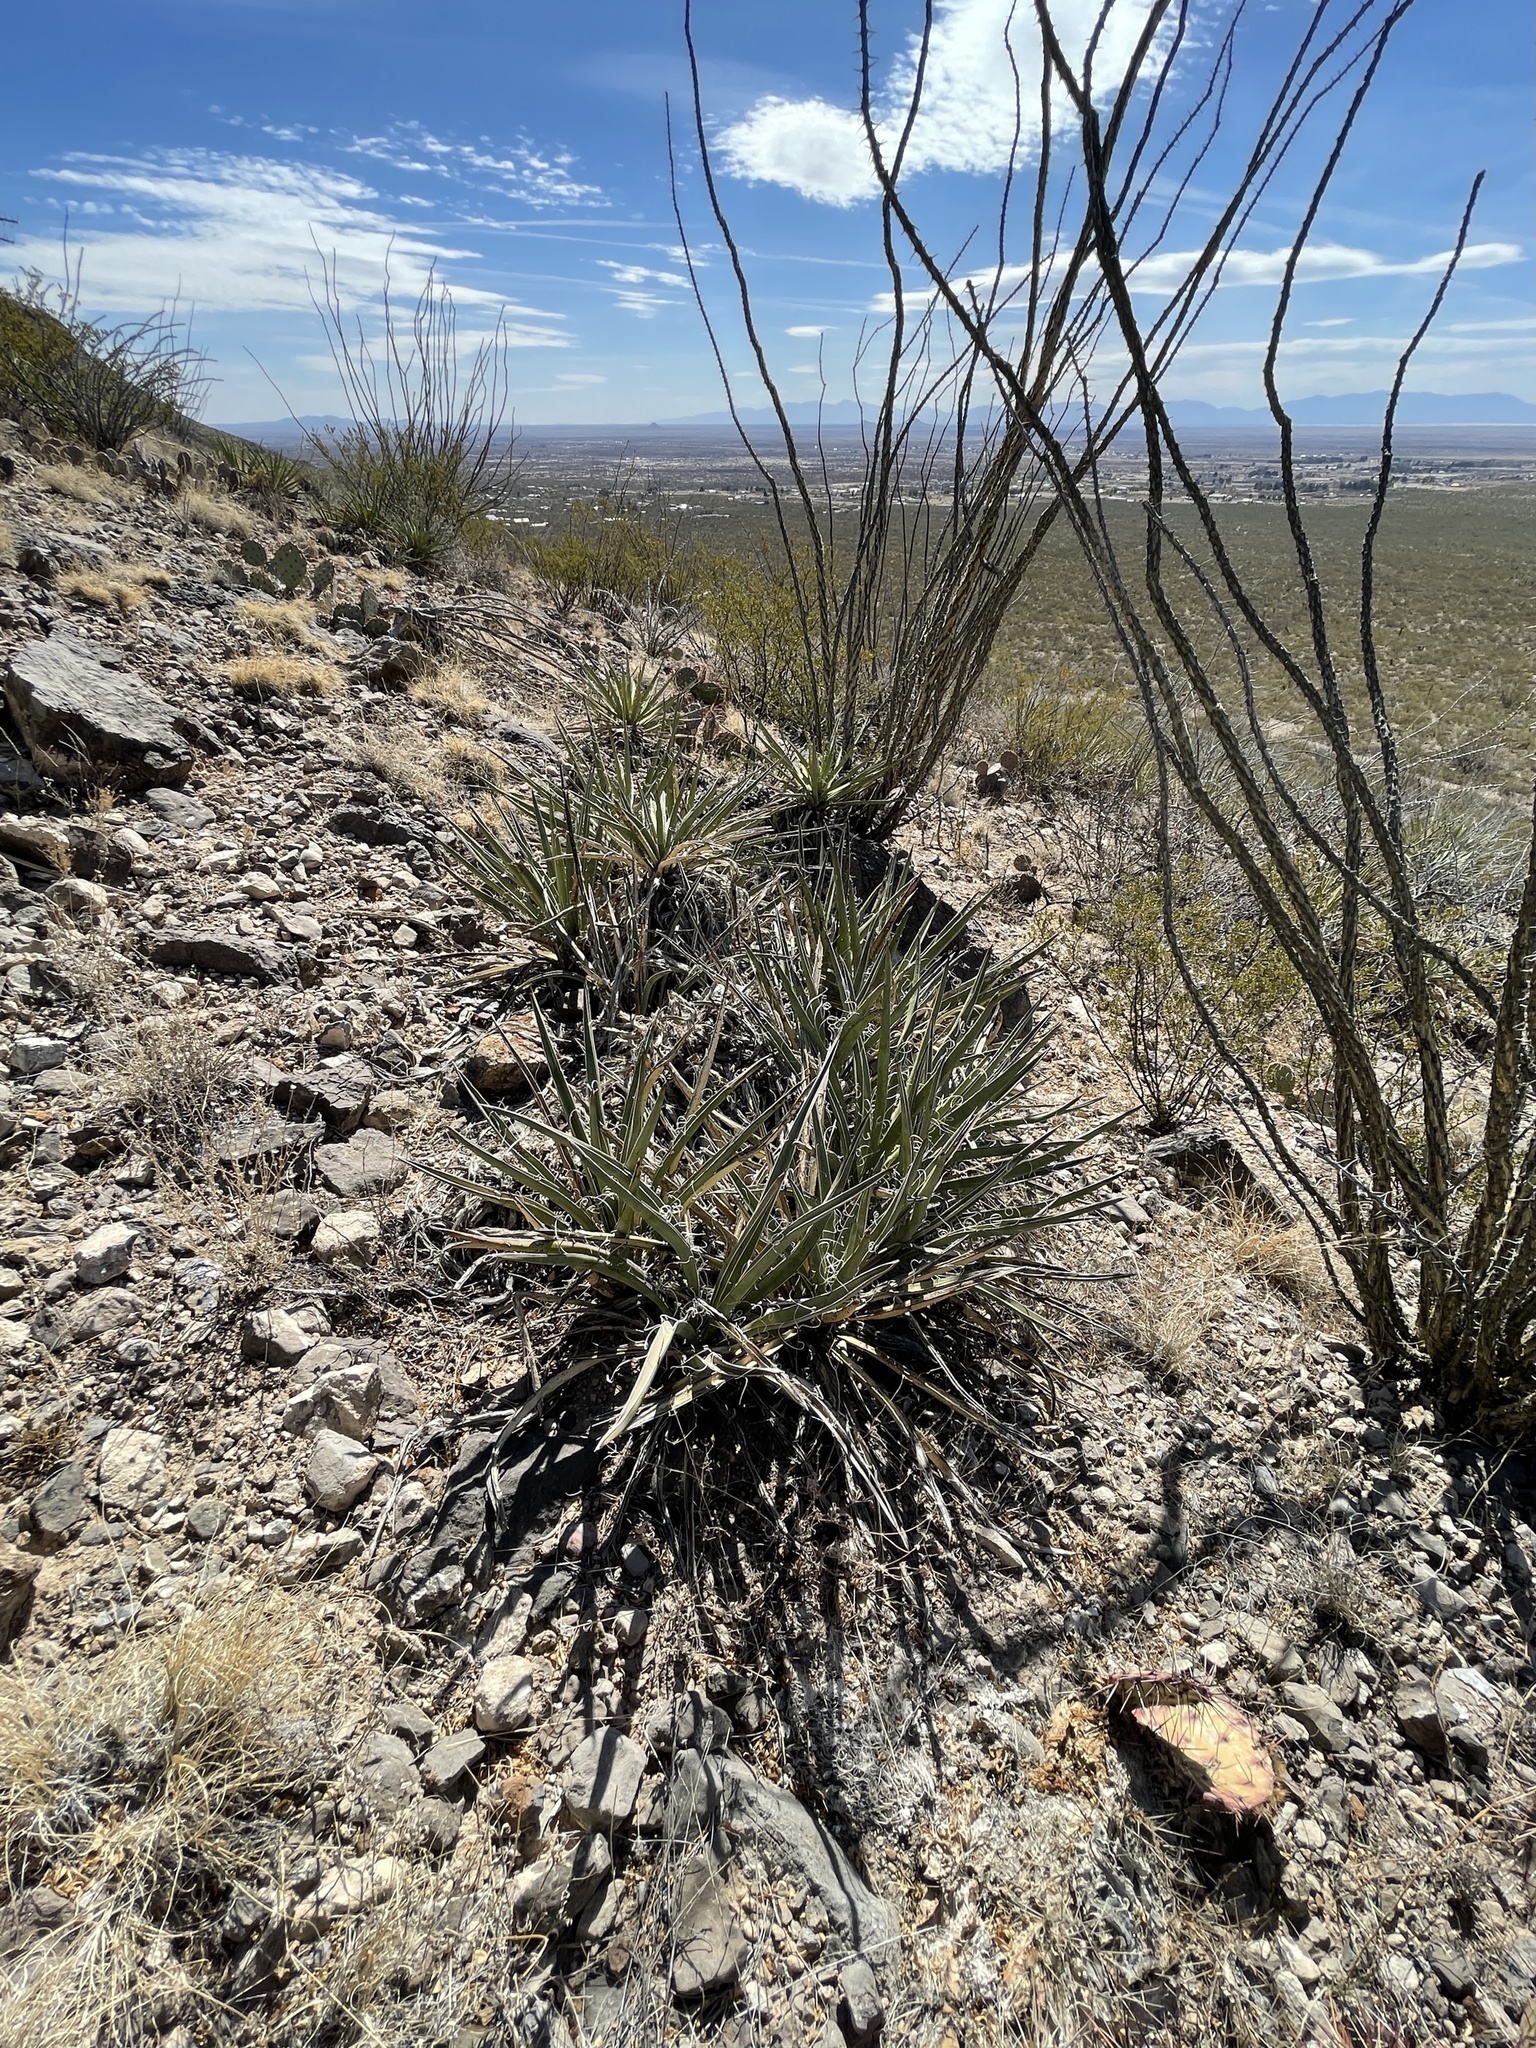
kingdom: Plantae
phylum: Tracheophyta
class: Liliopsida
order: Asparagales
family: Asparagaceae
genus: Yucca
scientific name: Yucca baccata
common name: Banana yucca
